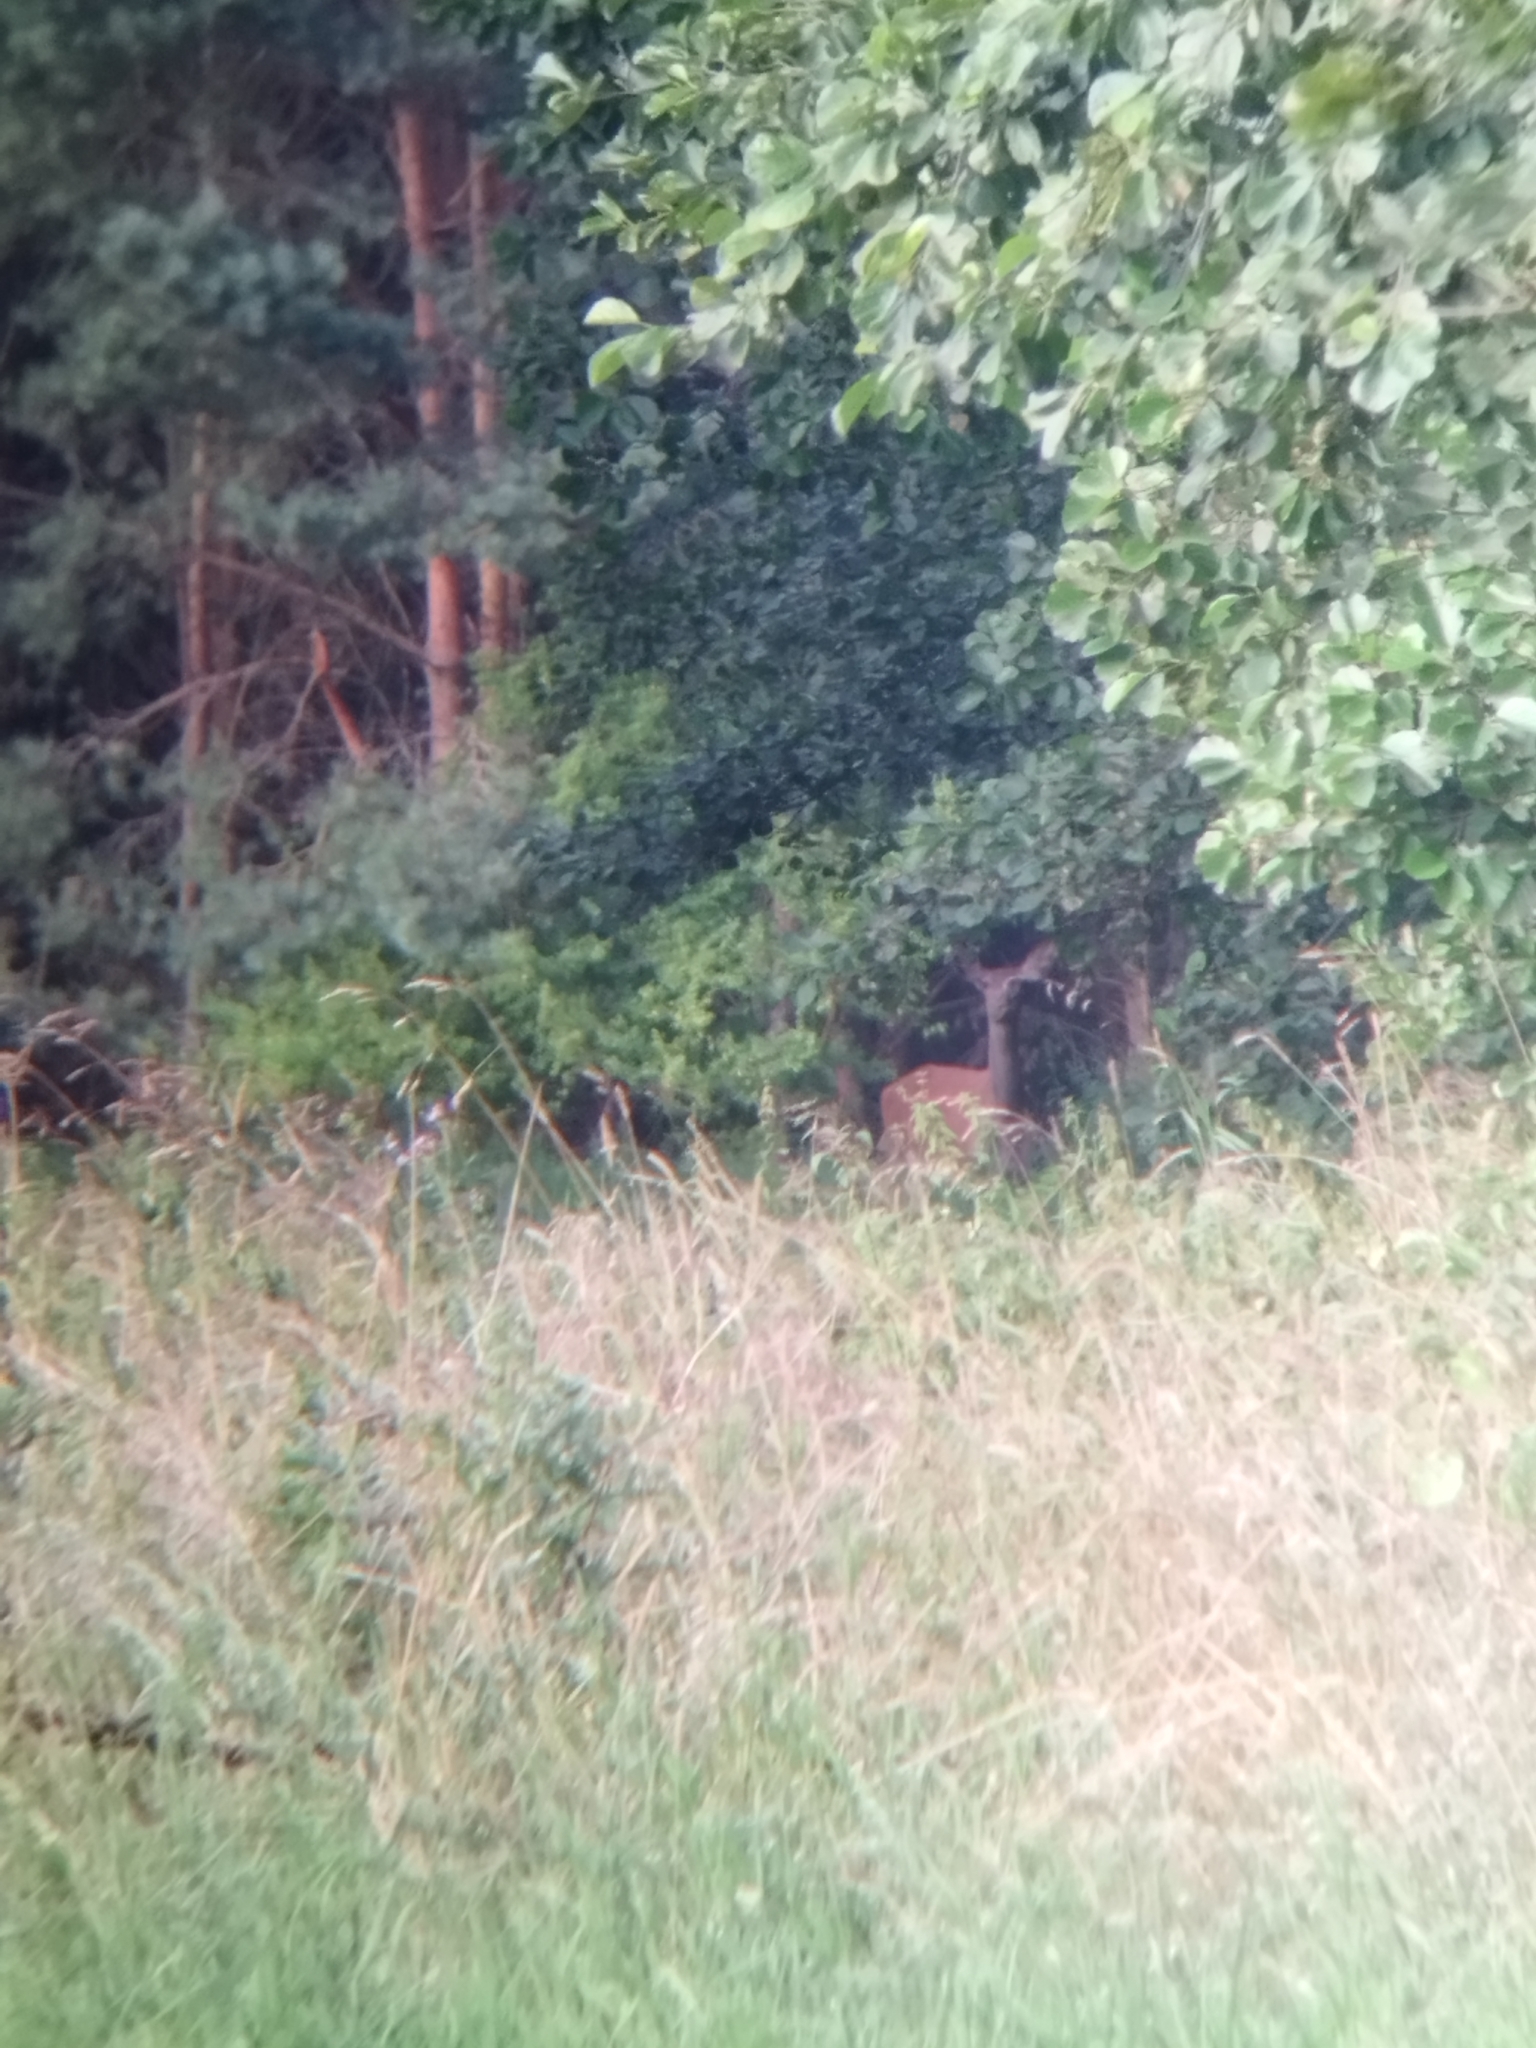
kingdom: Animalia
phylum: Chordata
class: Mammalia
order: Artiodactyla
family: Cervidae
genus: Cervus
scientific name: Cervus elaphus
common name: Red deer
